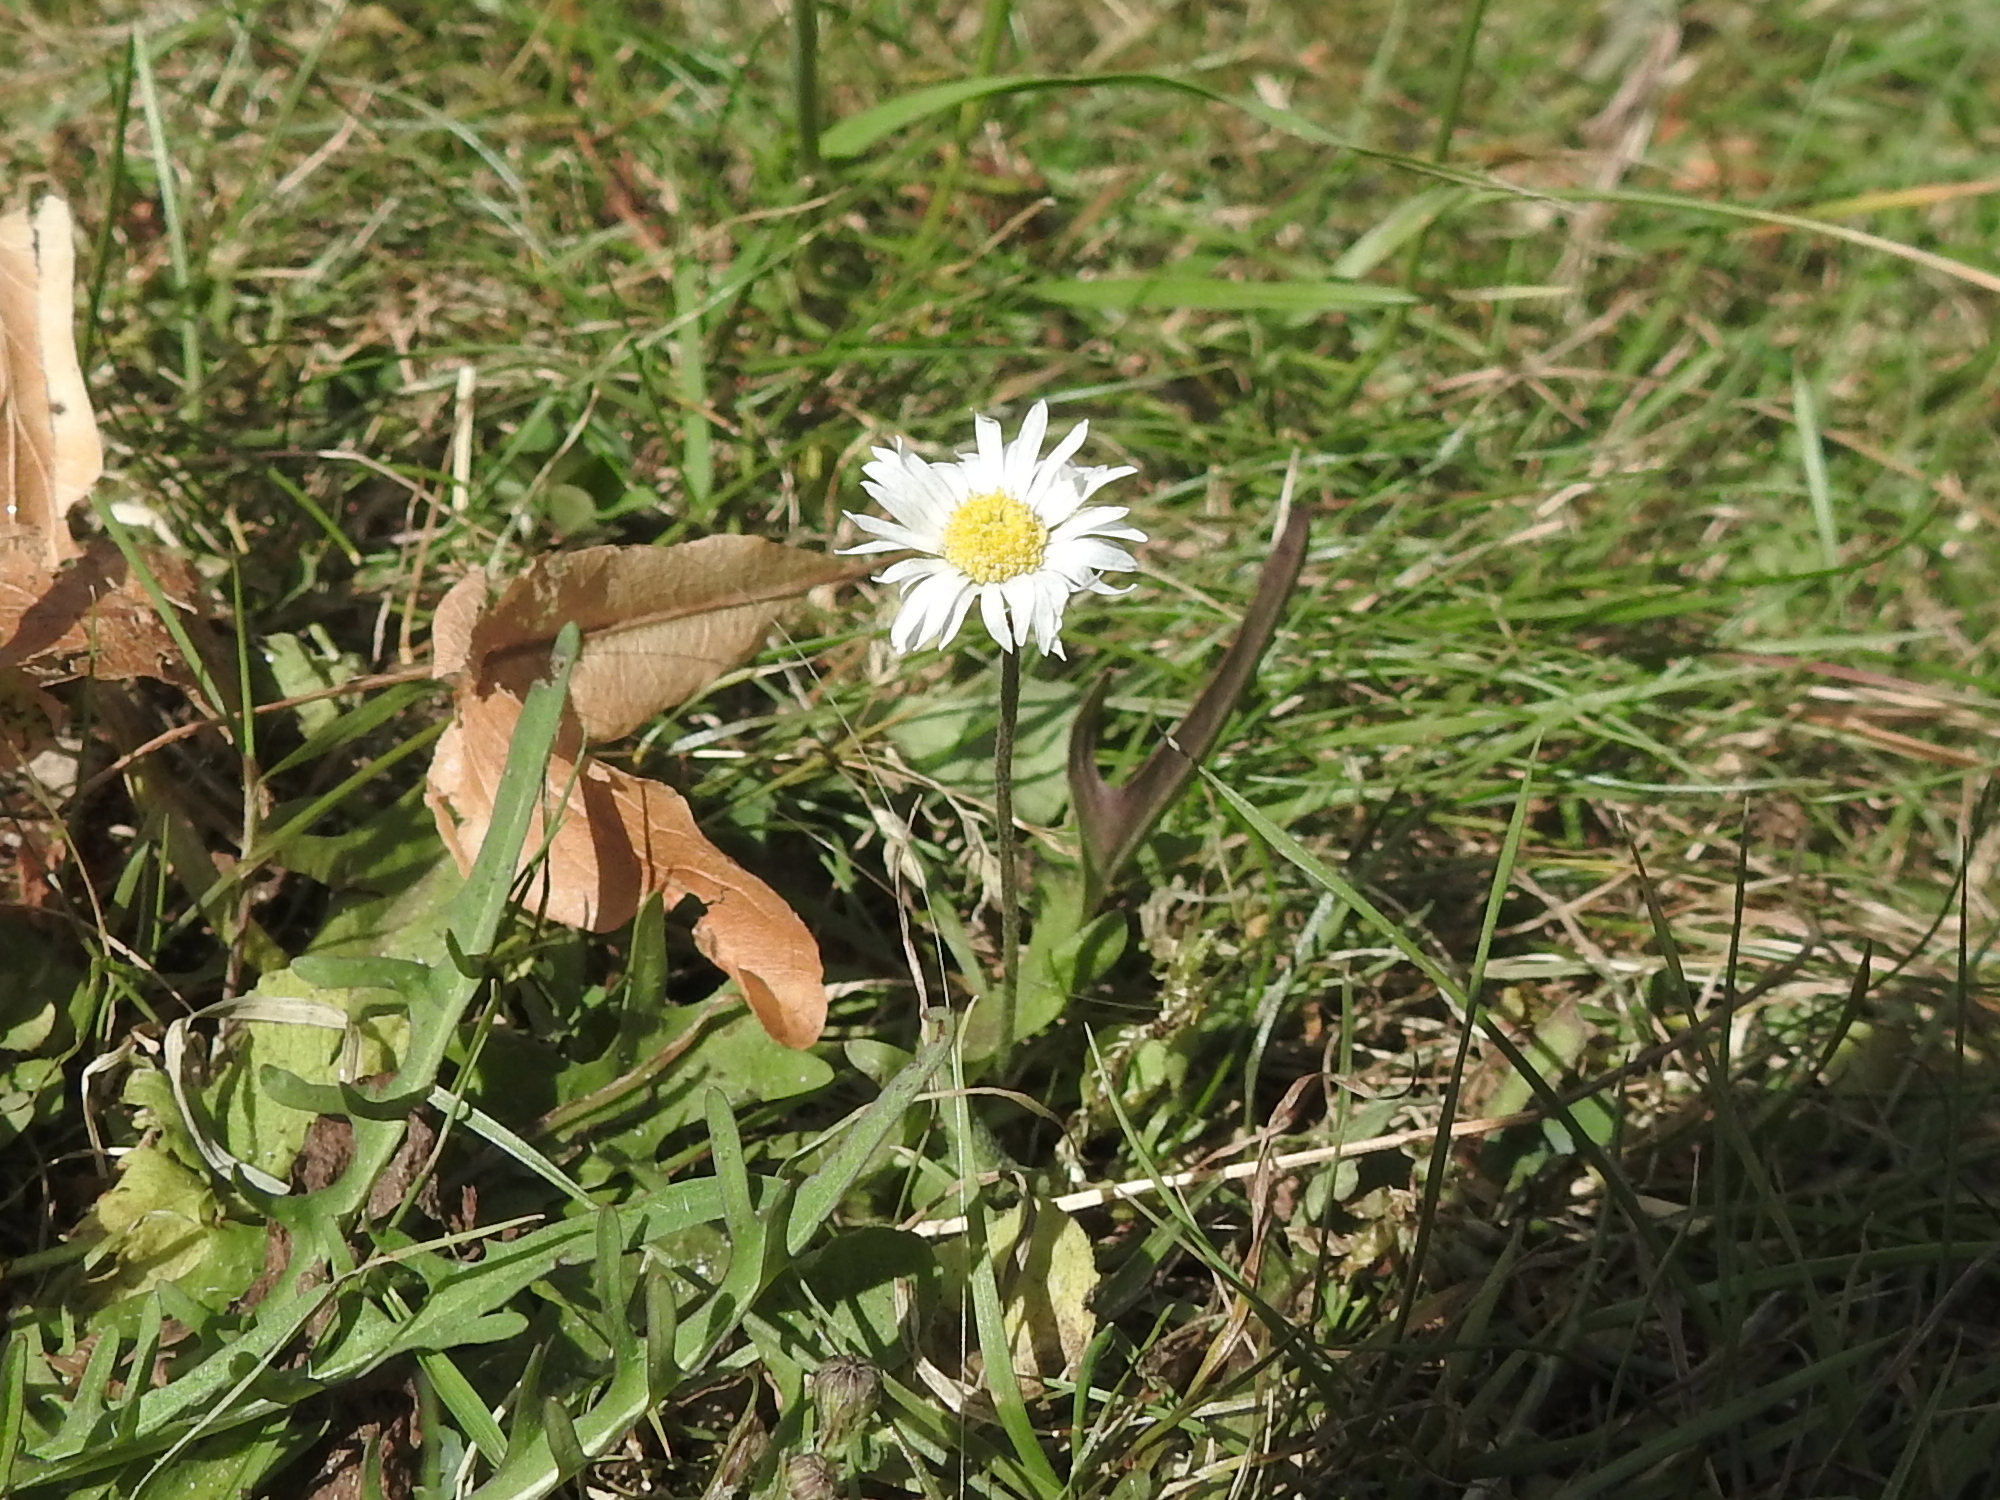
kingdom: Plantae
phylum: Tracheophyta
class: Magnoliopsida
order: Asterales
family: Asteraceae
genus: Bellis
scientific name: Bellis perennis
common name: Lawndaisy
